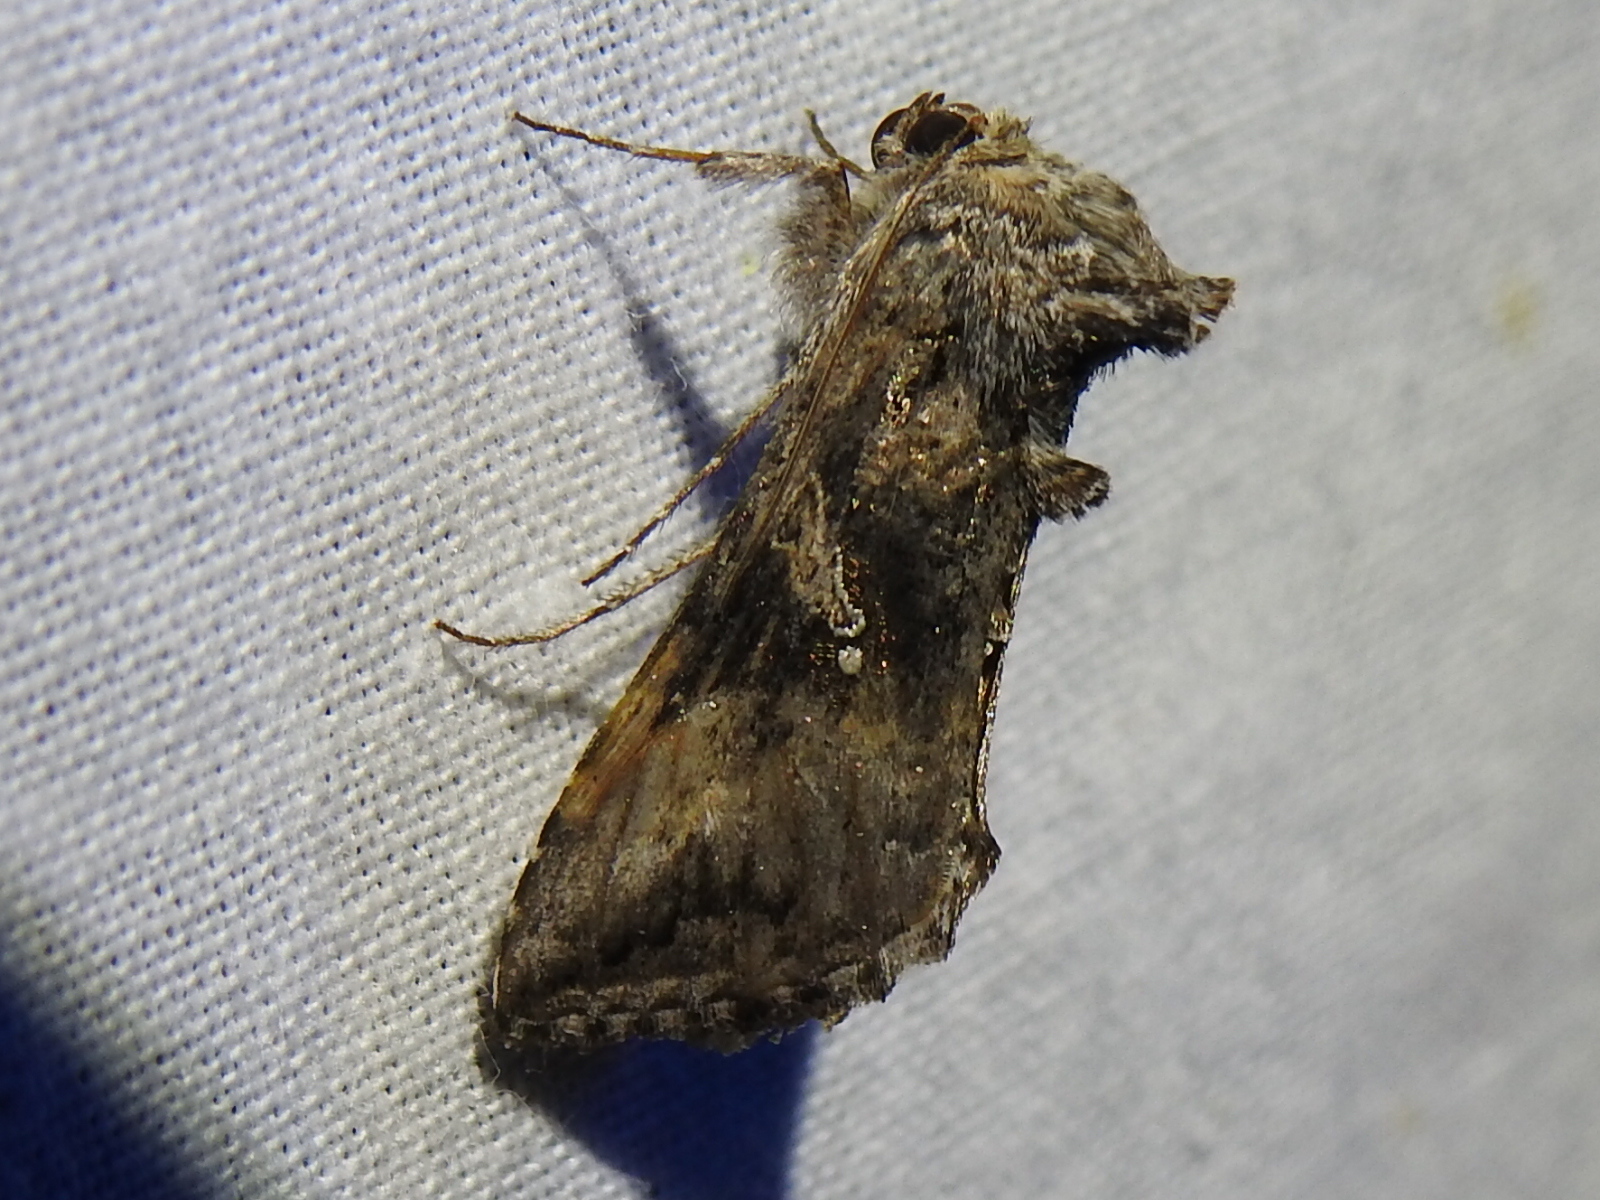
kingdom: Animalia
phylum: Arthropoda
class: Insecta
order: Lepidoptera
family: Noctuidae
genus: Rachiplusia
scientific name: Rachiplusia ou
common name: Gray looper moth
